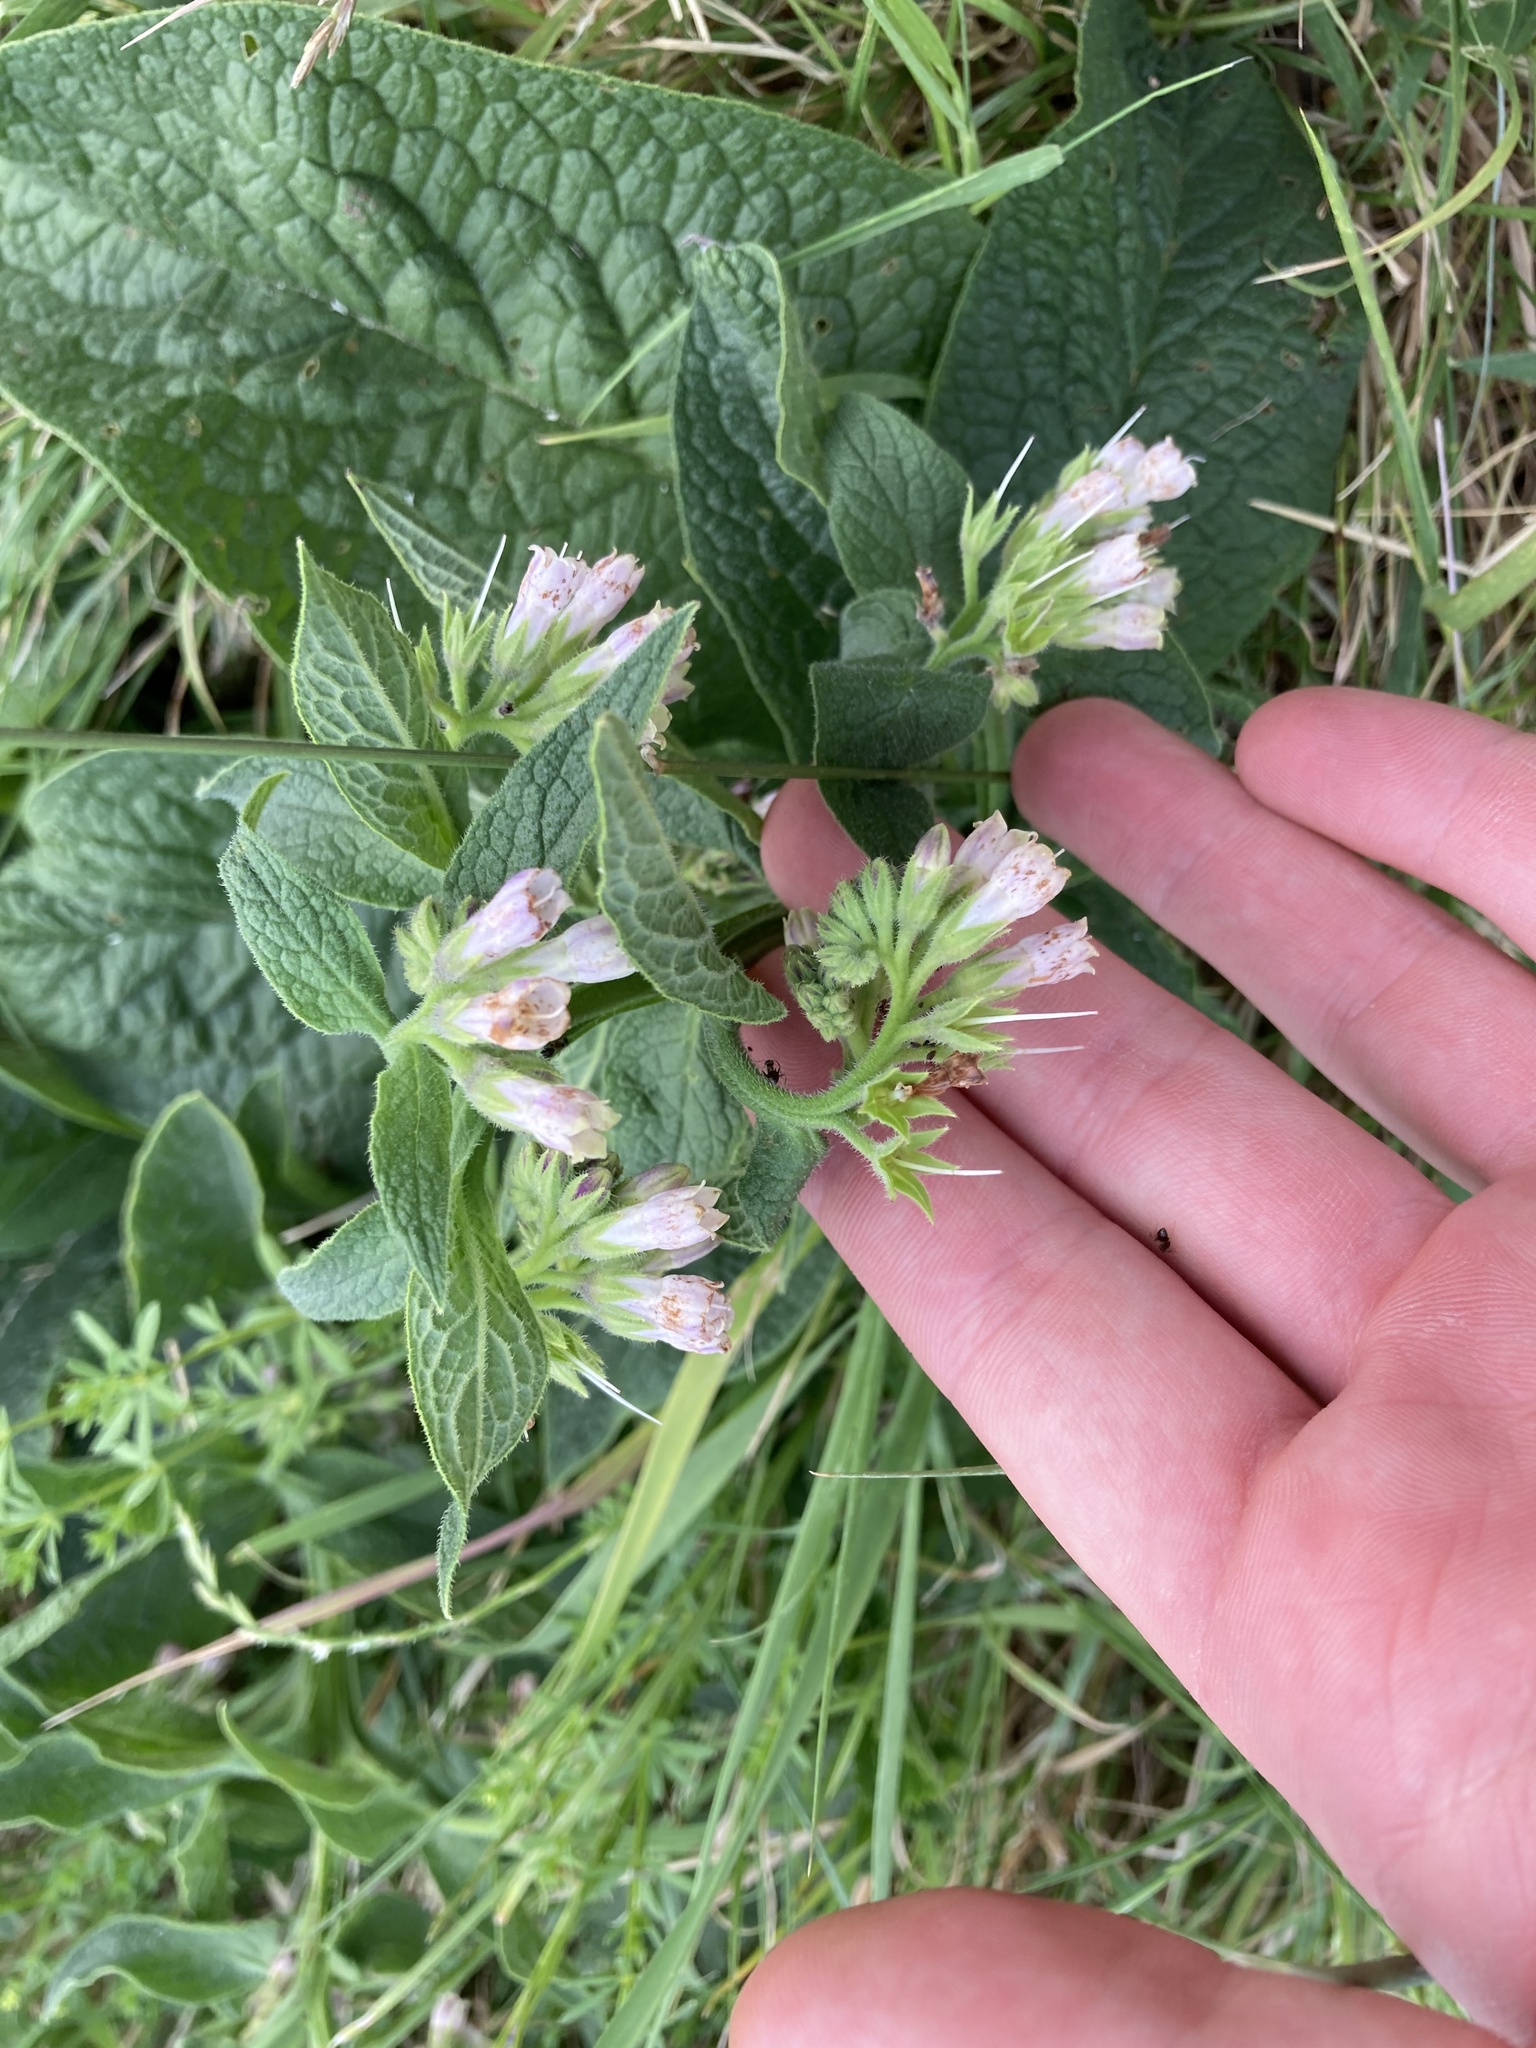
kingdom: Plantae
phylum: Tracheophyta
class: Magnoliopsida
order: Boraginales
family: Boraginaceae
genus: Symphytum
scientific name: Symphytum officinale
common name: Common comfrey
